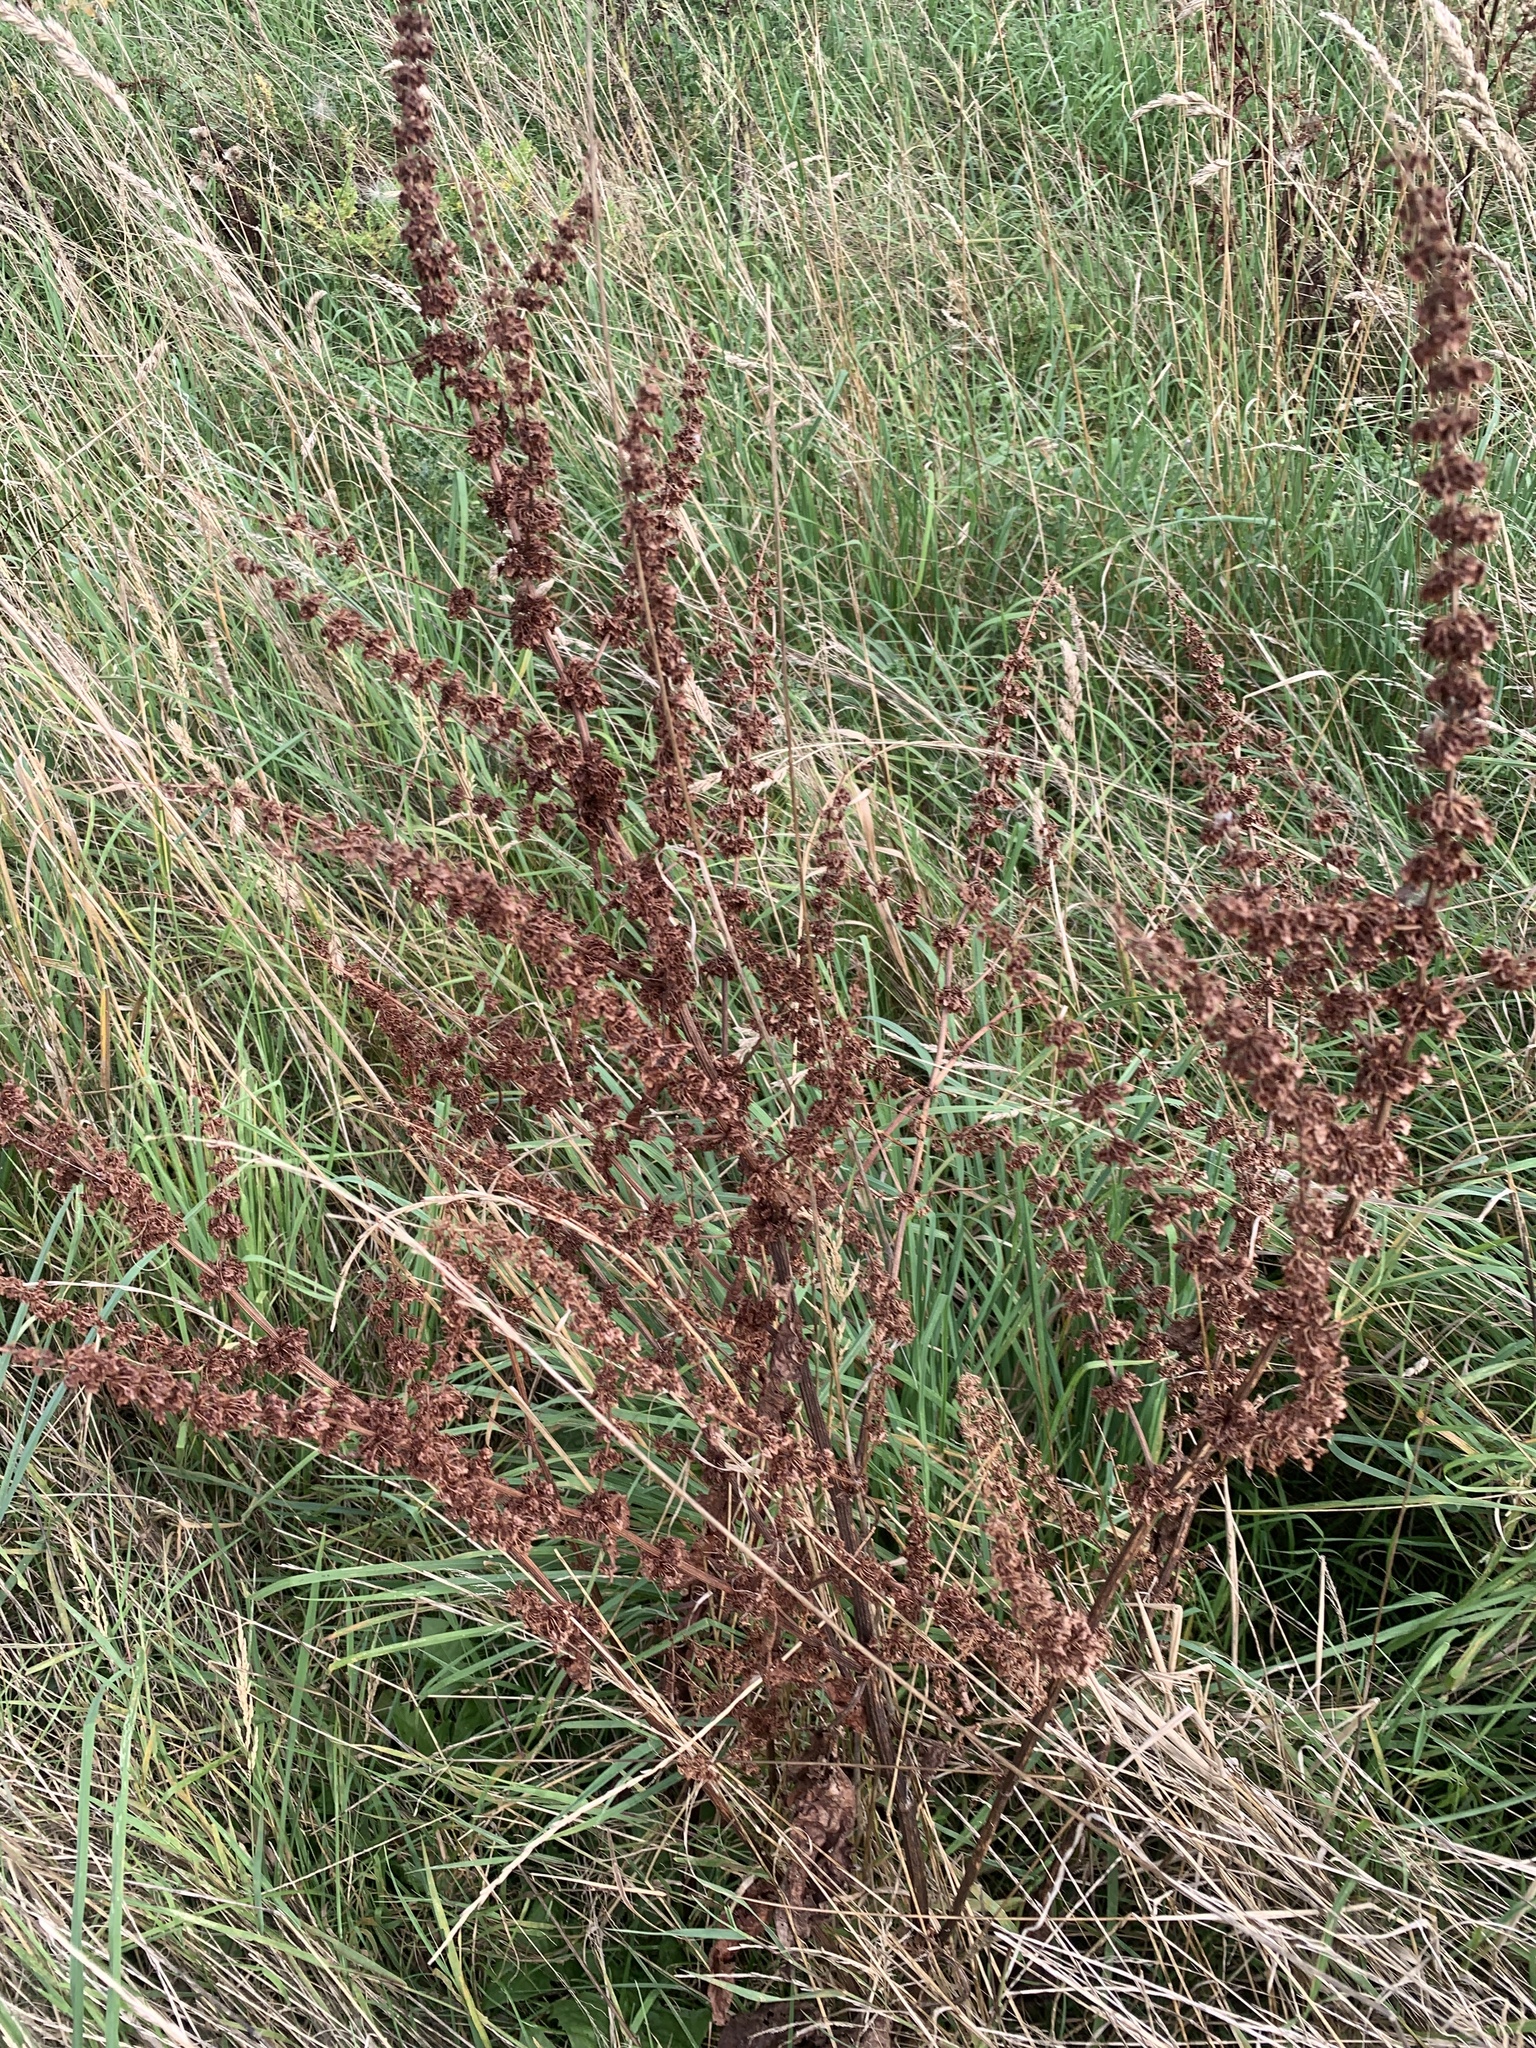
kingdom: Plantae
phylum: Tracheophyta
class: Magnoliopsida
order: Caryophyllales
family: Polygonaceae
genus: Rumex
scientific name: Rumex crispus
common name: Curled dock
